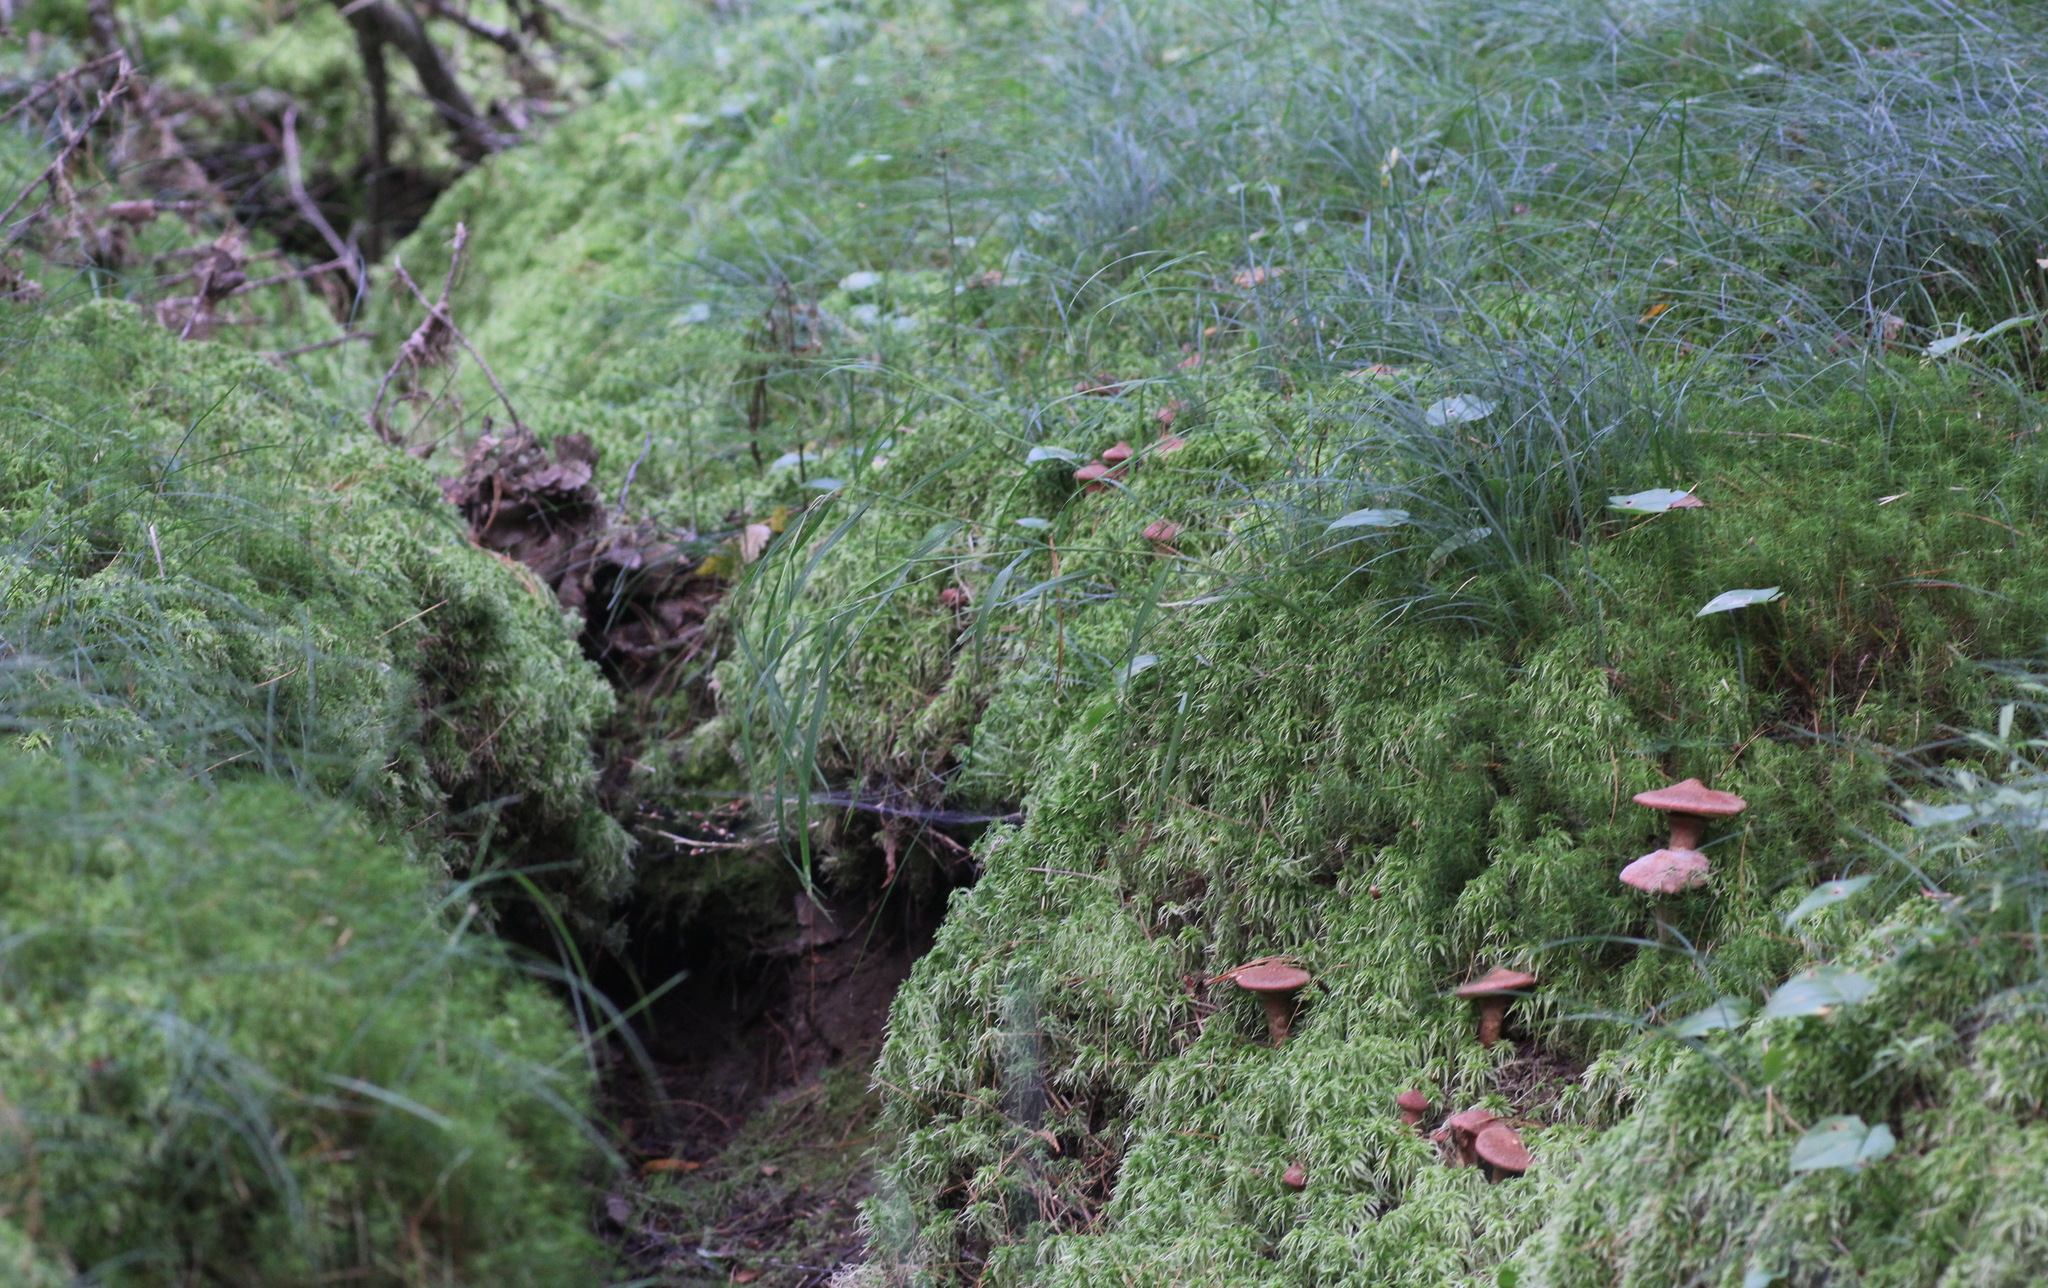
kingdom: Fungi
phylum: Basidiomycota
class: Agaricomycetes
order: Boletales
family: Suillaceae
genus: Suillus
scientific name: Suillus spraguei
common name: Painted suillus
